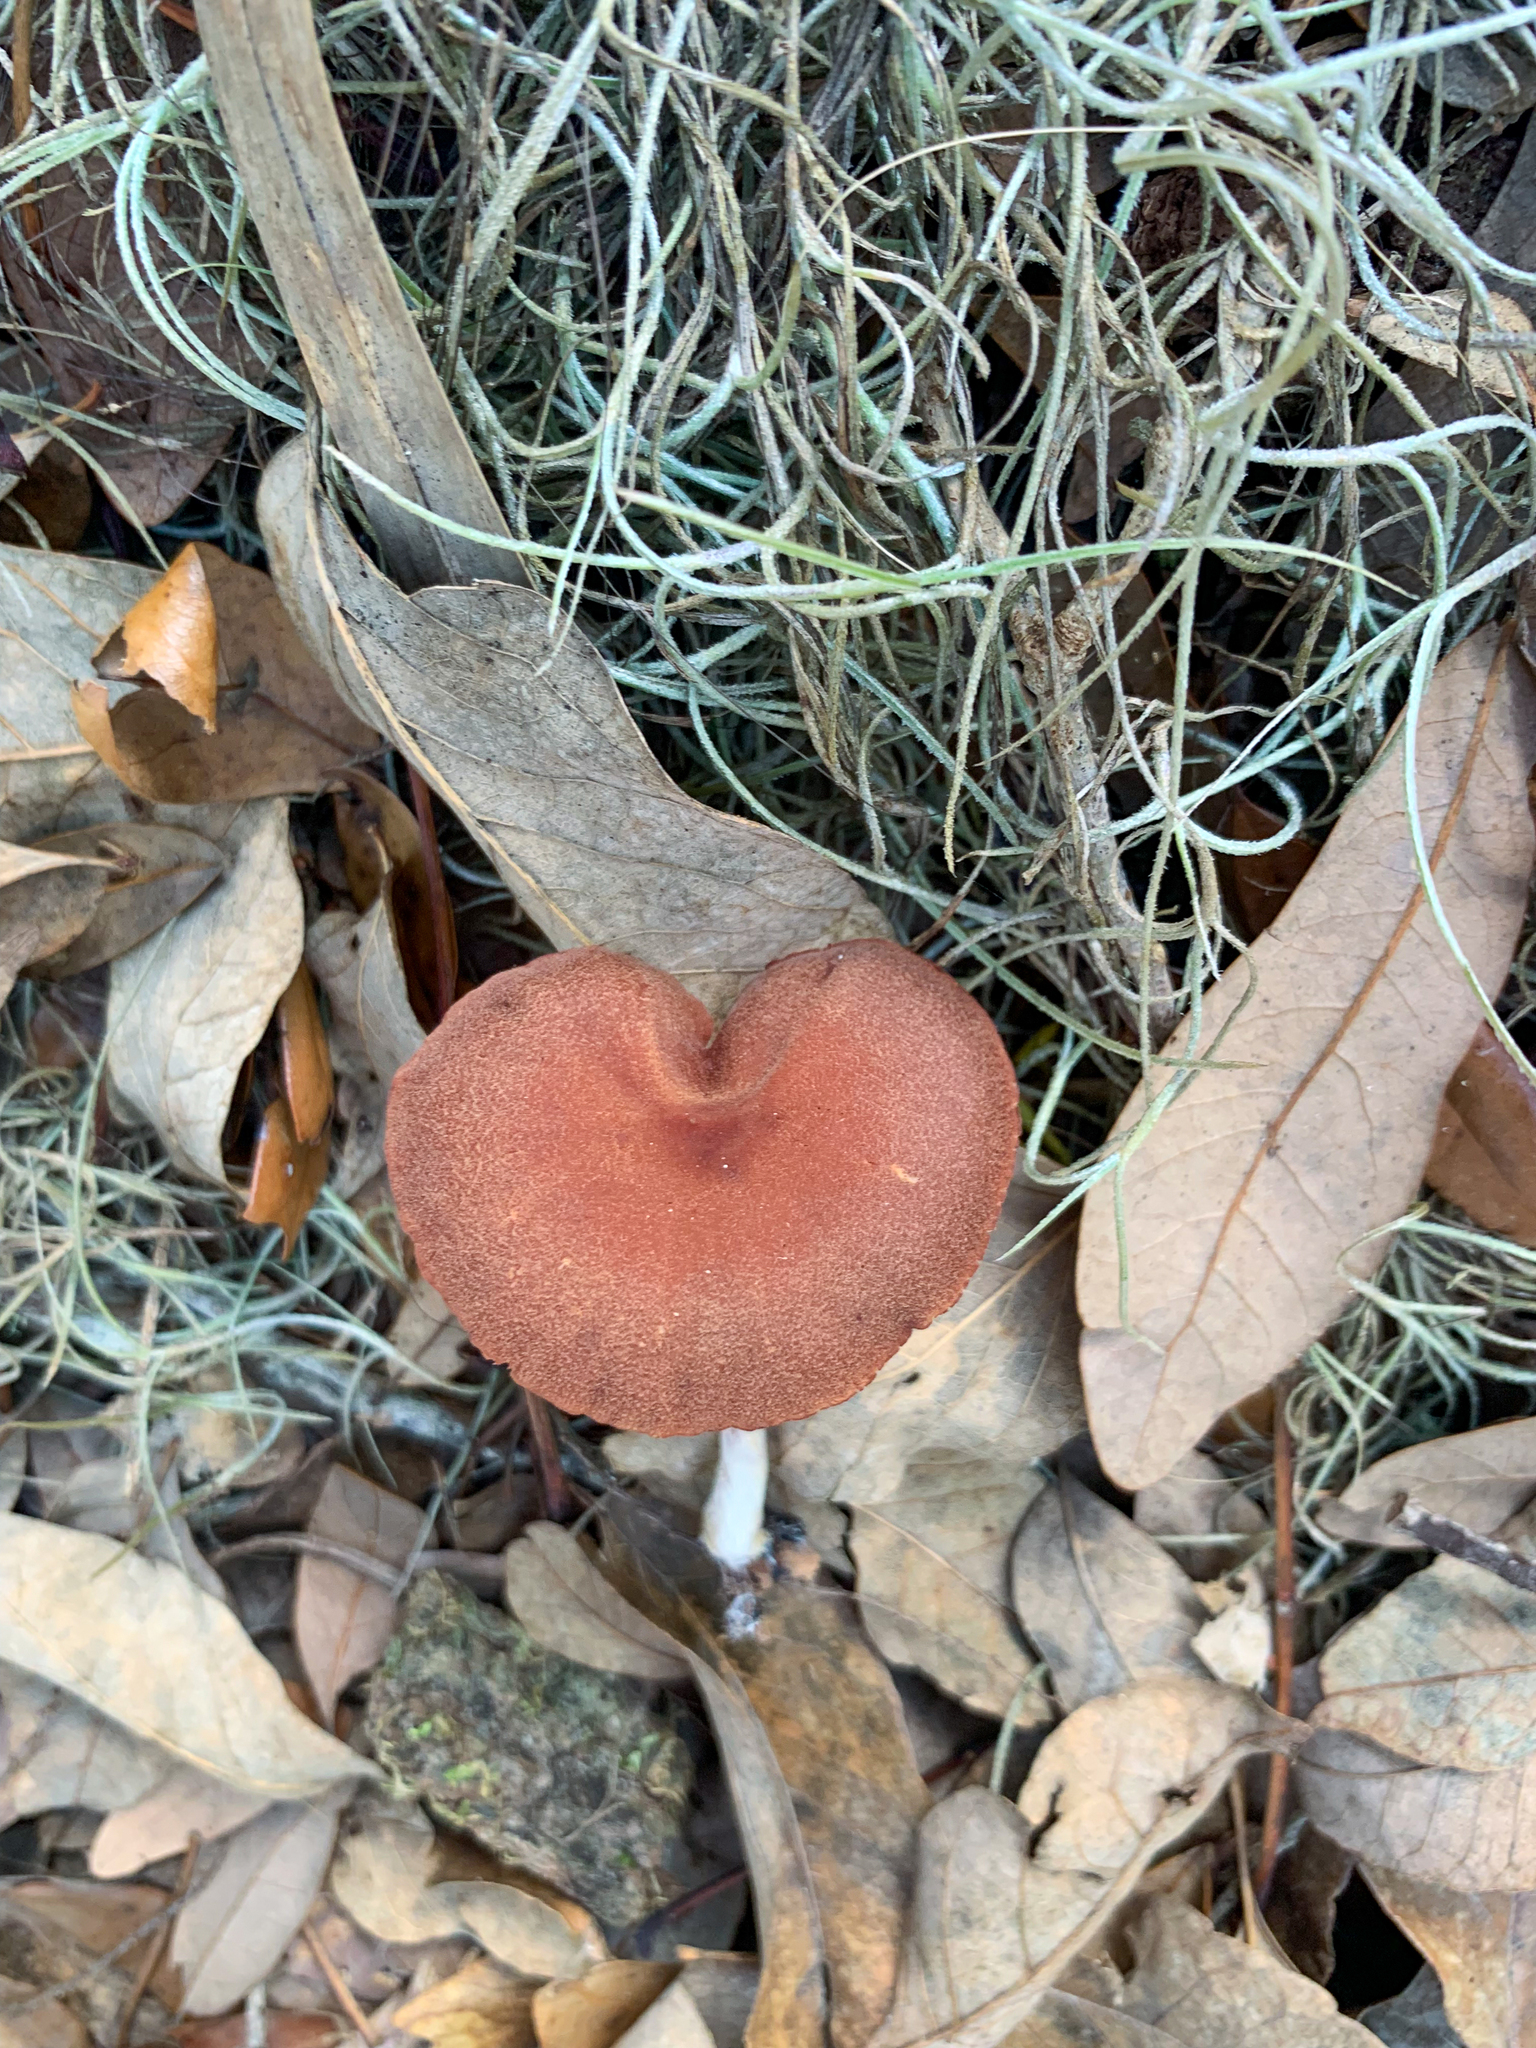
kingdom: Fungi
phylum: Basidiomycota
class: Agaricomycetes
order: Agaricales
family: Hydnangiaceae
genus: Laccaria
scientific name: Laccaria laccata
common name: Deceiver
